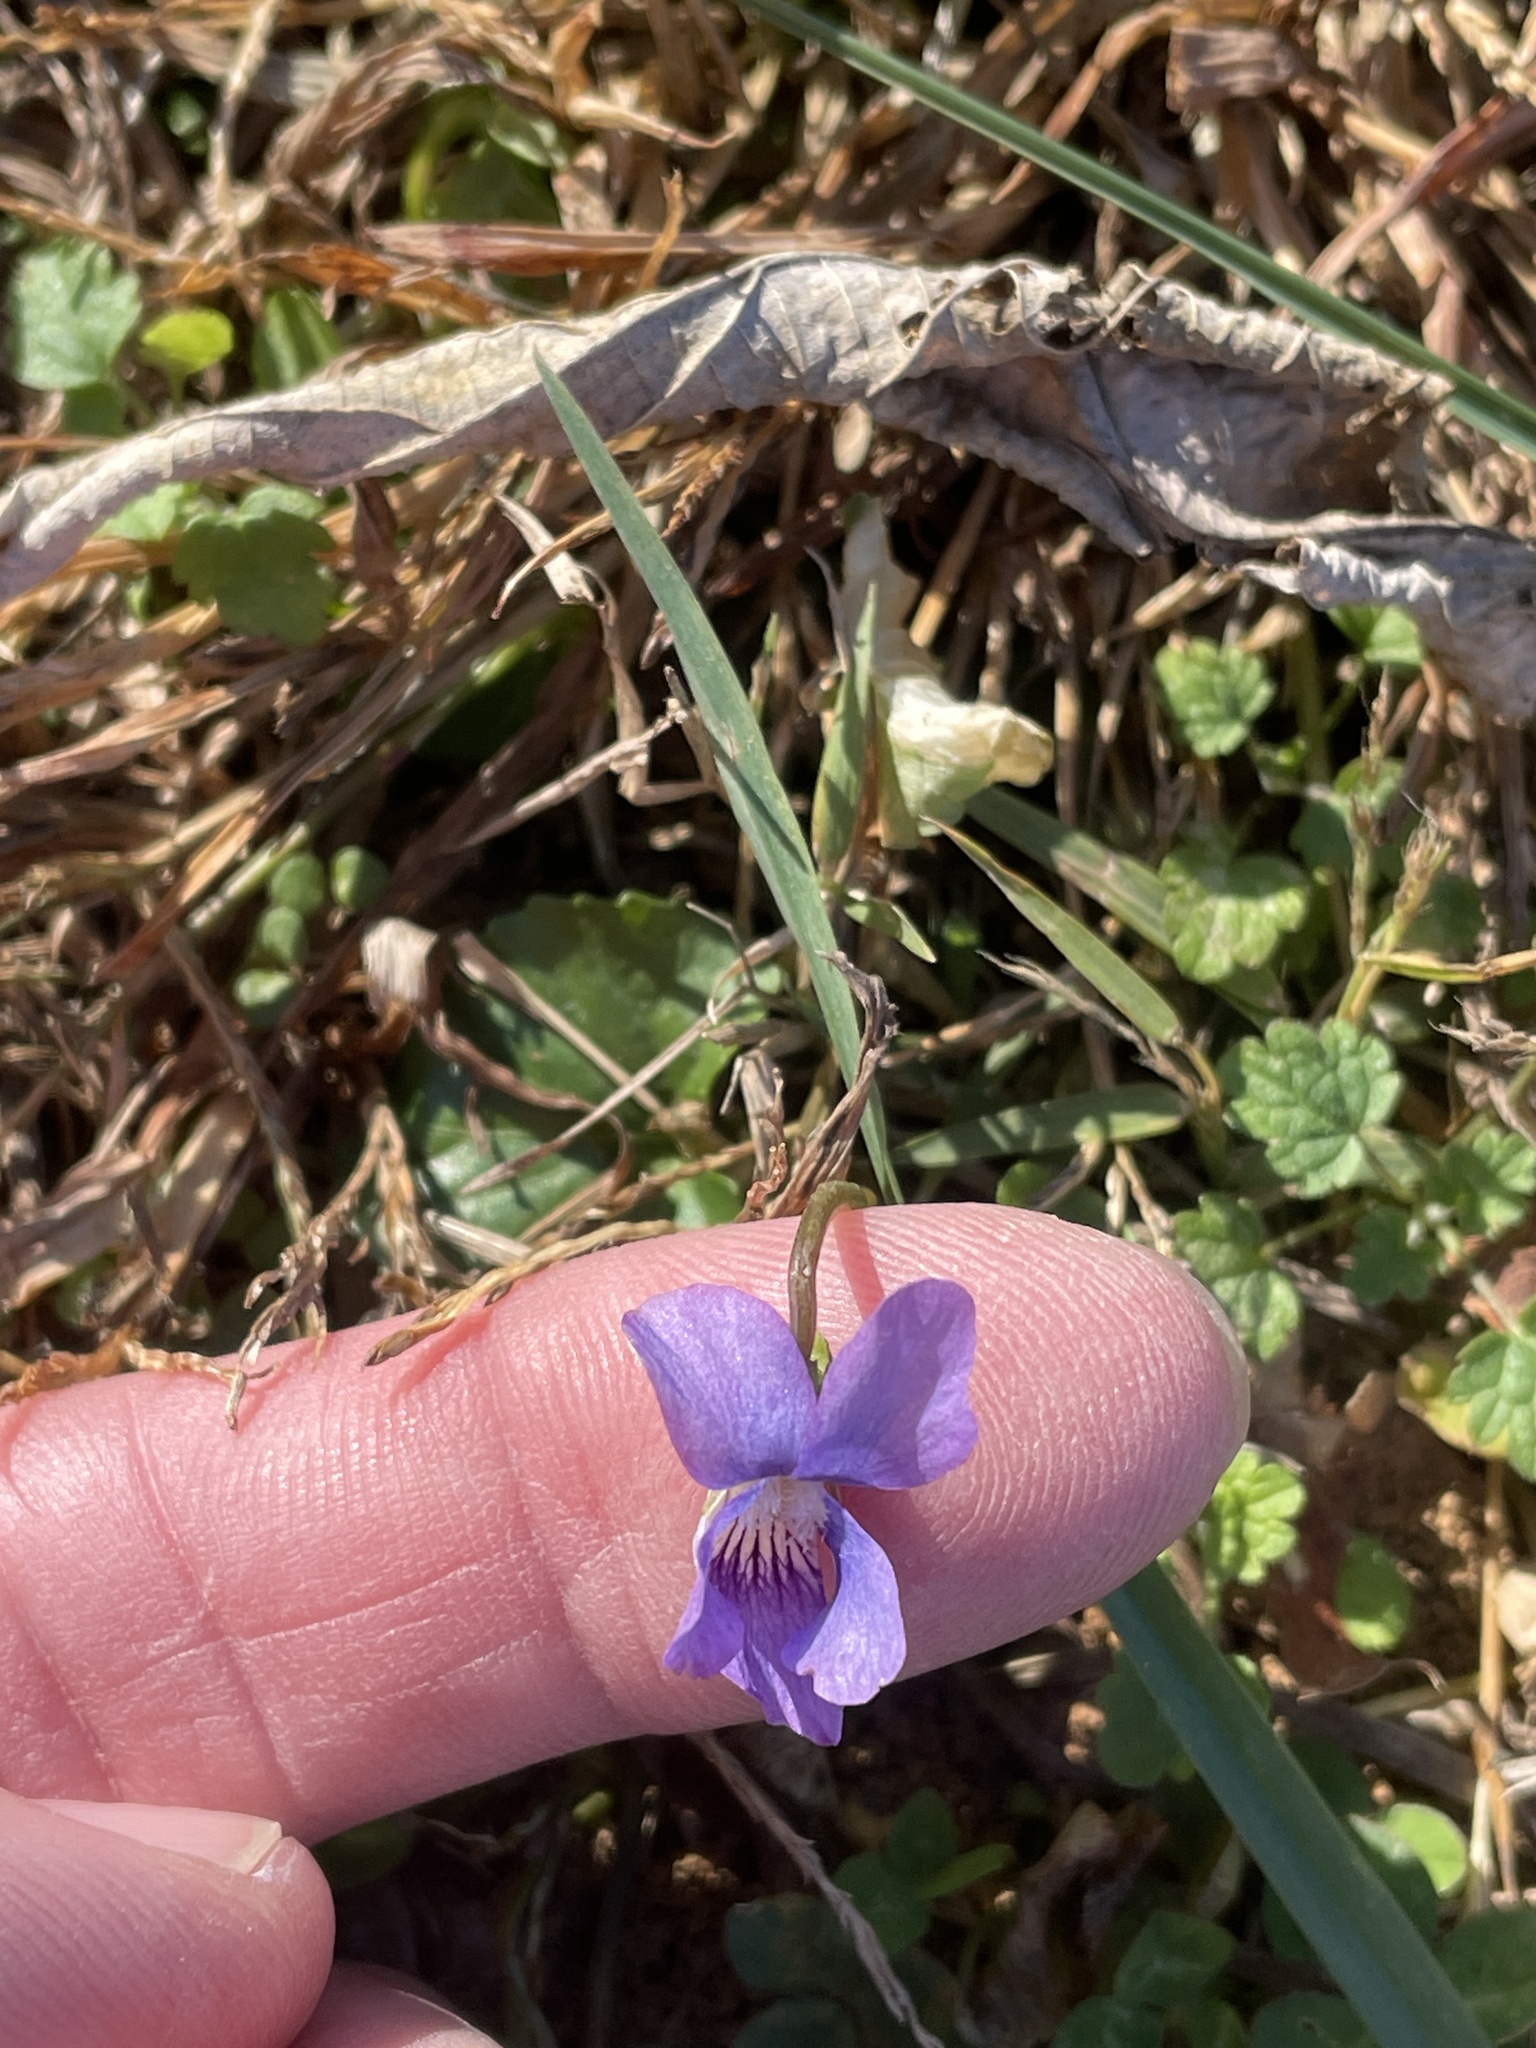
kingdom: Plantae
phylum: Tracheophyta
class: Magnoliopsida
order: Malpighiales
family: Violaceae
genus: Viola
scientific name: Viola sororia
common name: Dooryard violet
